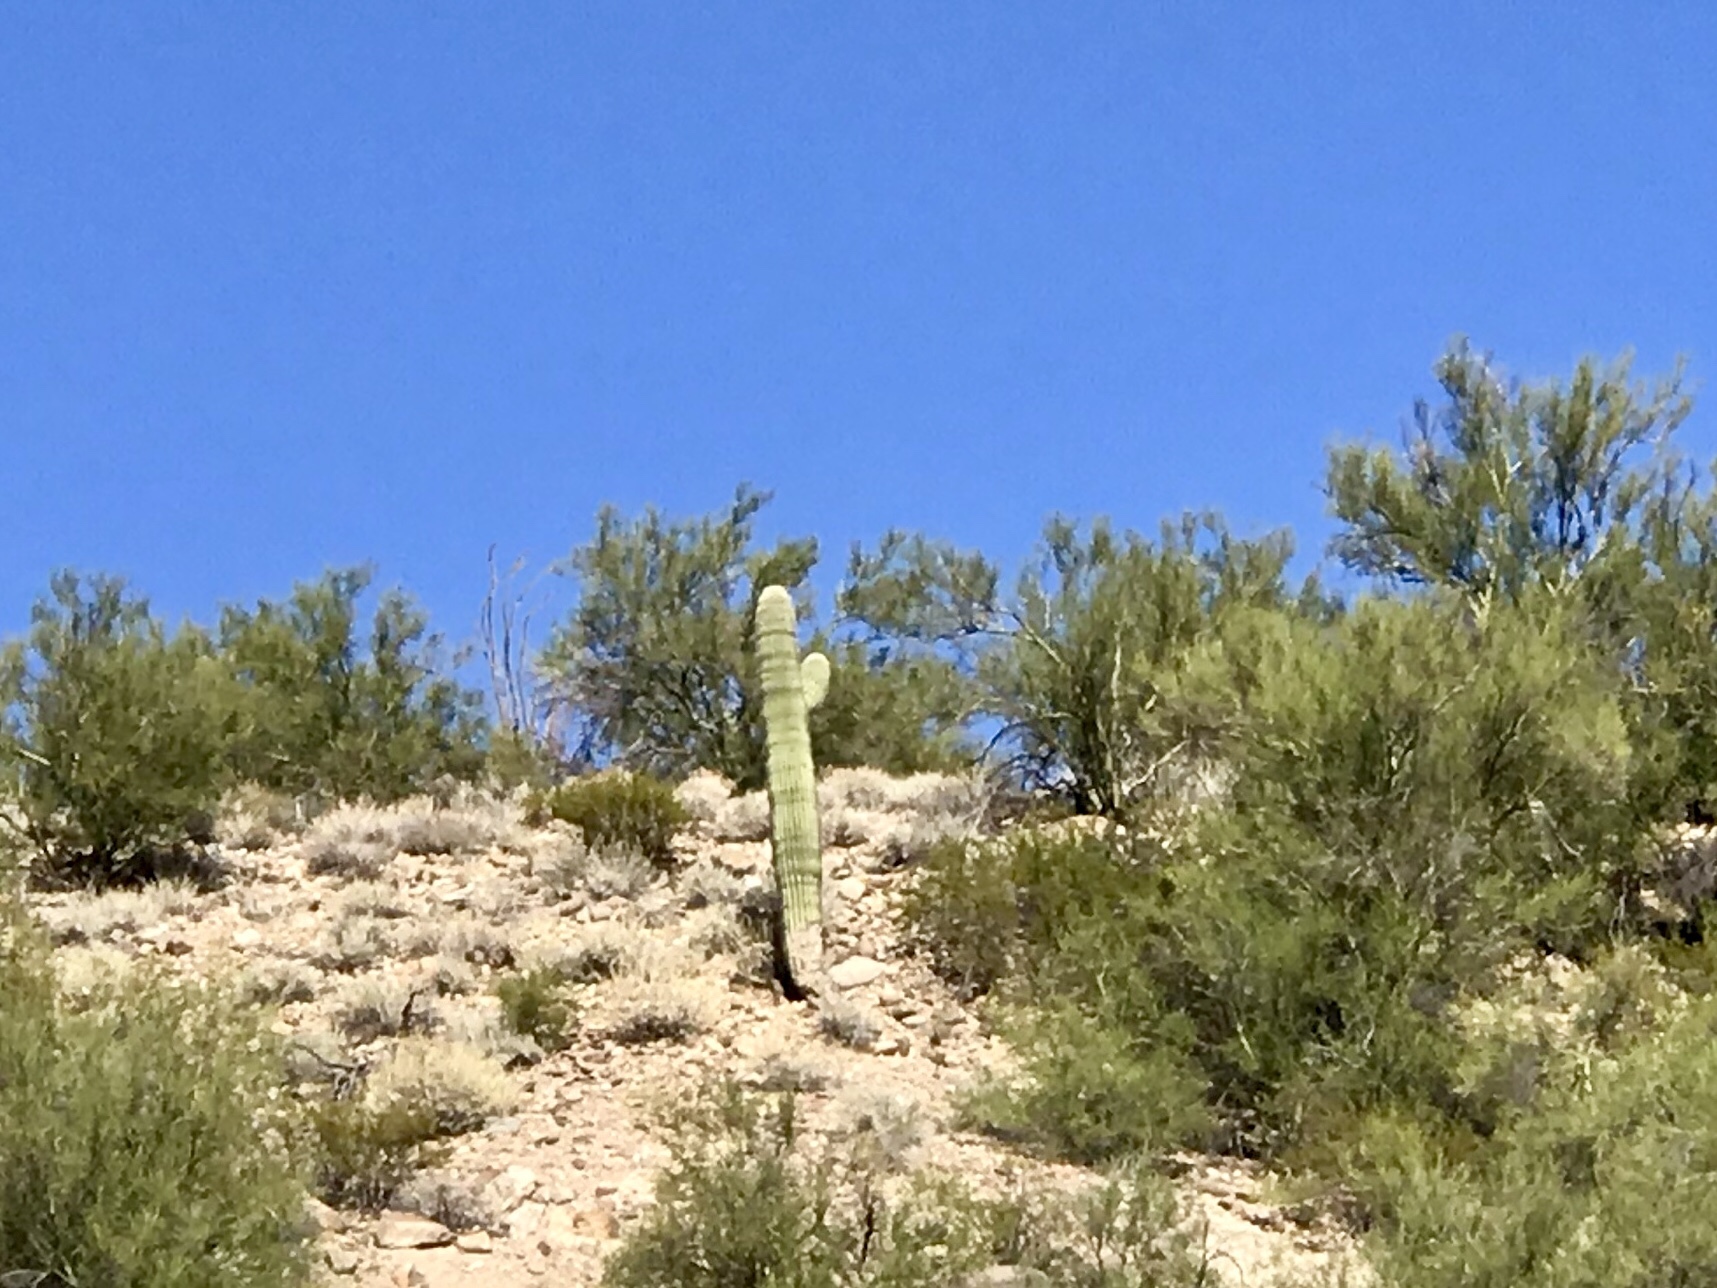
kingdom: Plantae
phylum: Tracheophyta
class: Magnoliopsida
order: Caryophyllales
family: Cactaceae
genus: Carnegiea
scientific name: Carnegiea gigantea
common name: Saguaro
